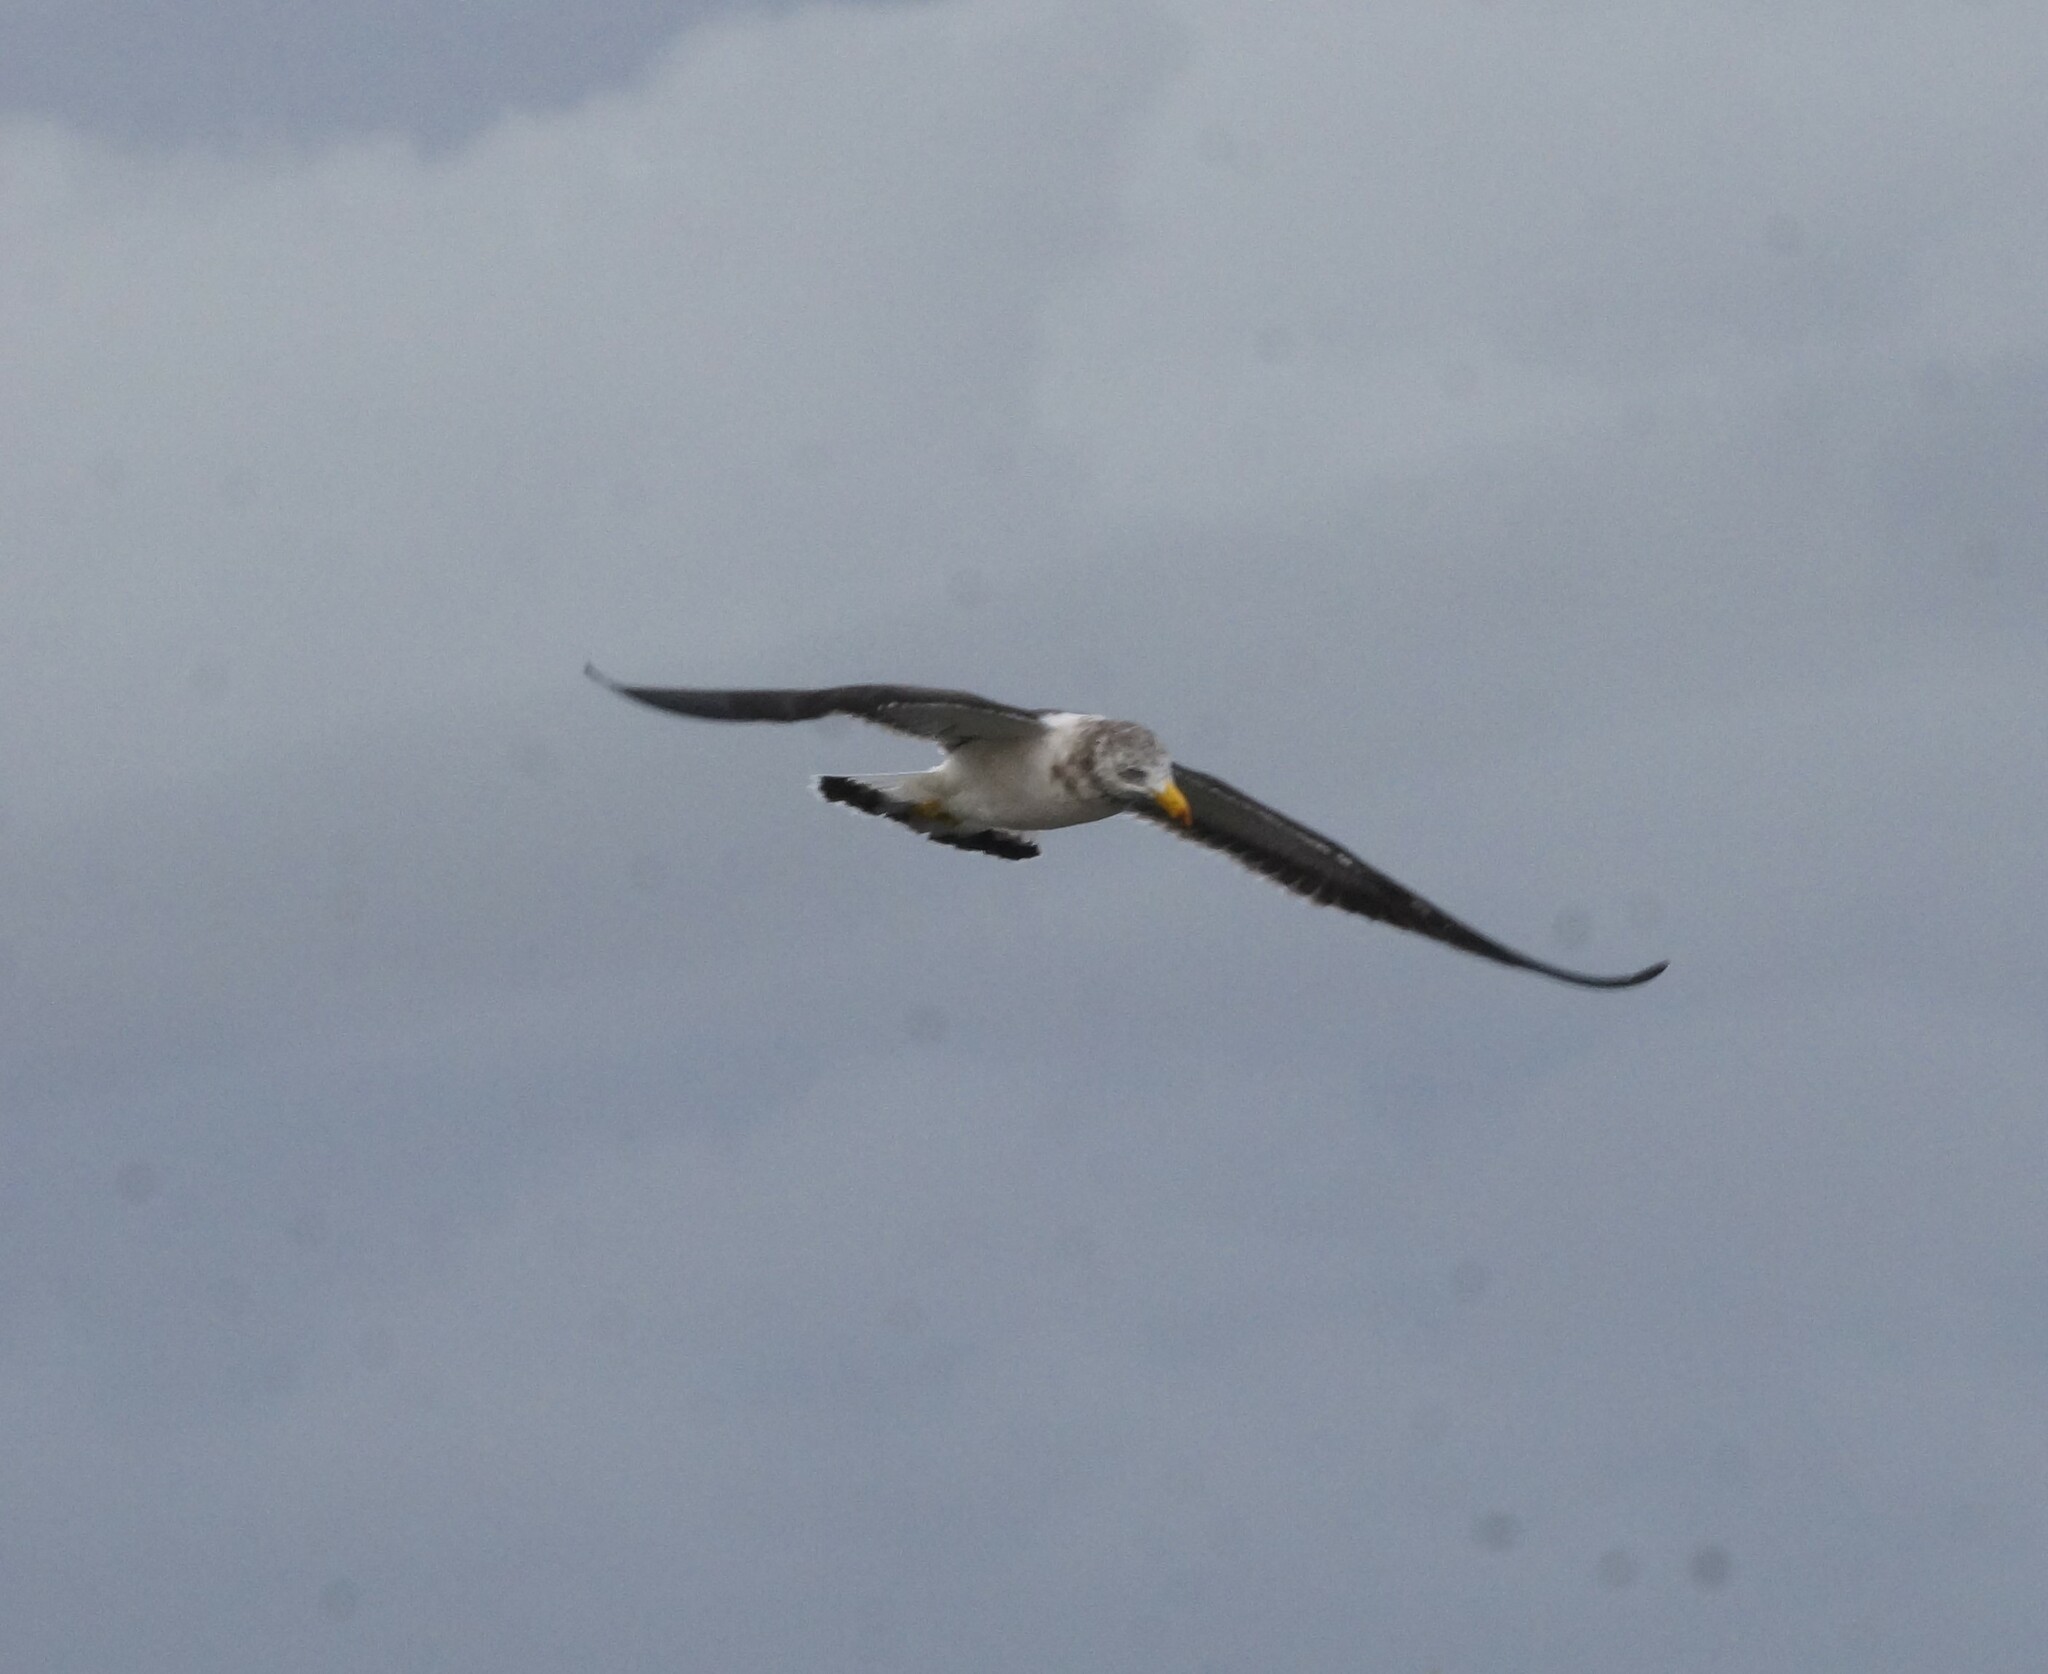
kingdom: Animalia
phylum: Chordata
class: Aves
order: Charadriiformes
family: Laridae
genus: Larus
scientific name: Larus pacificus
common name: Pacific gull
